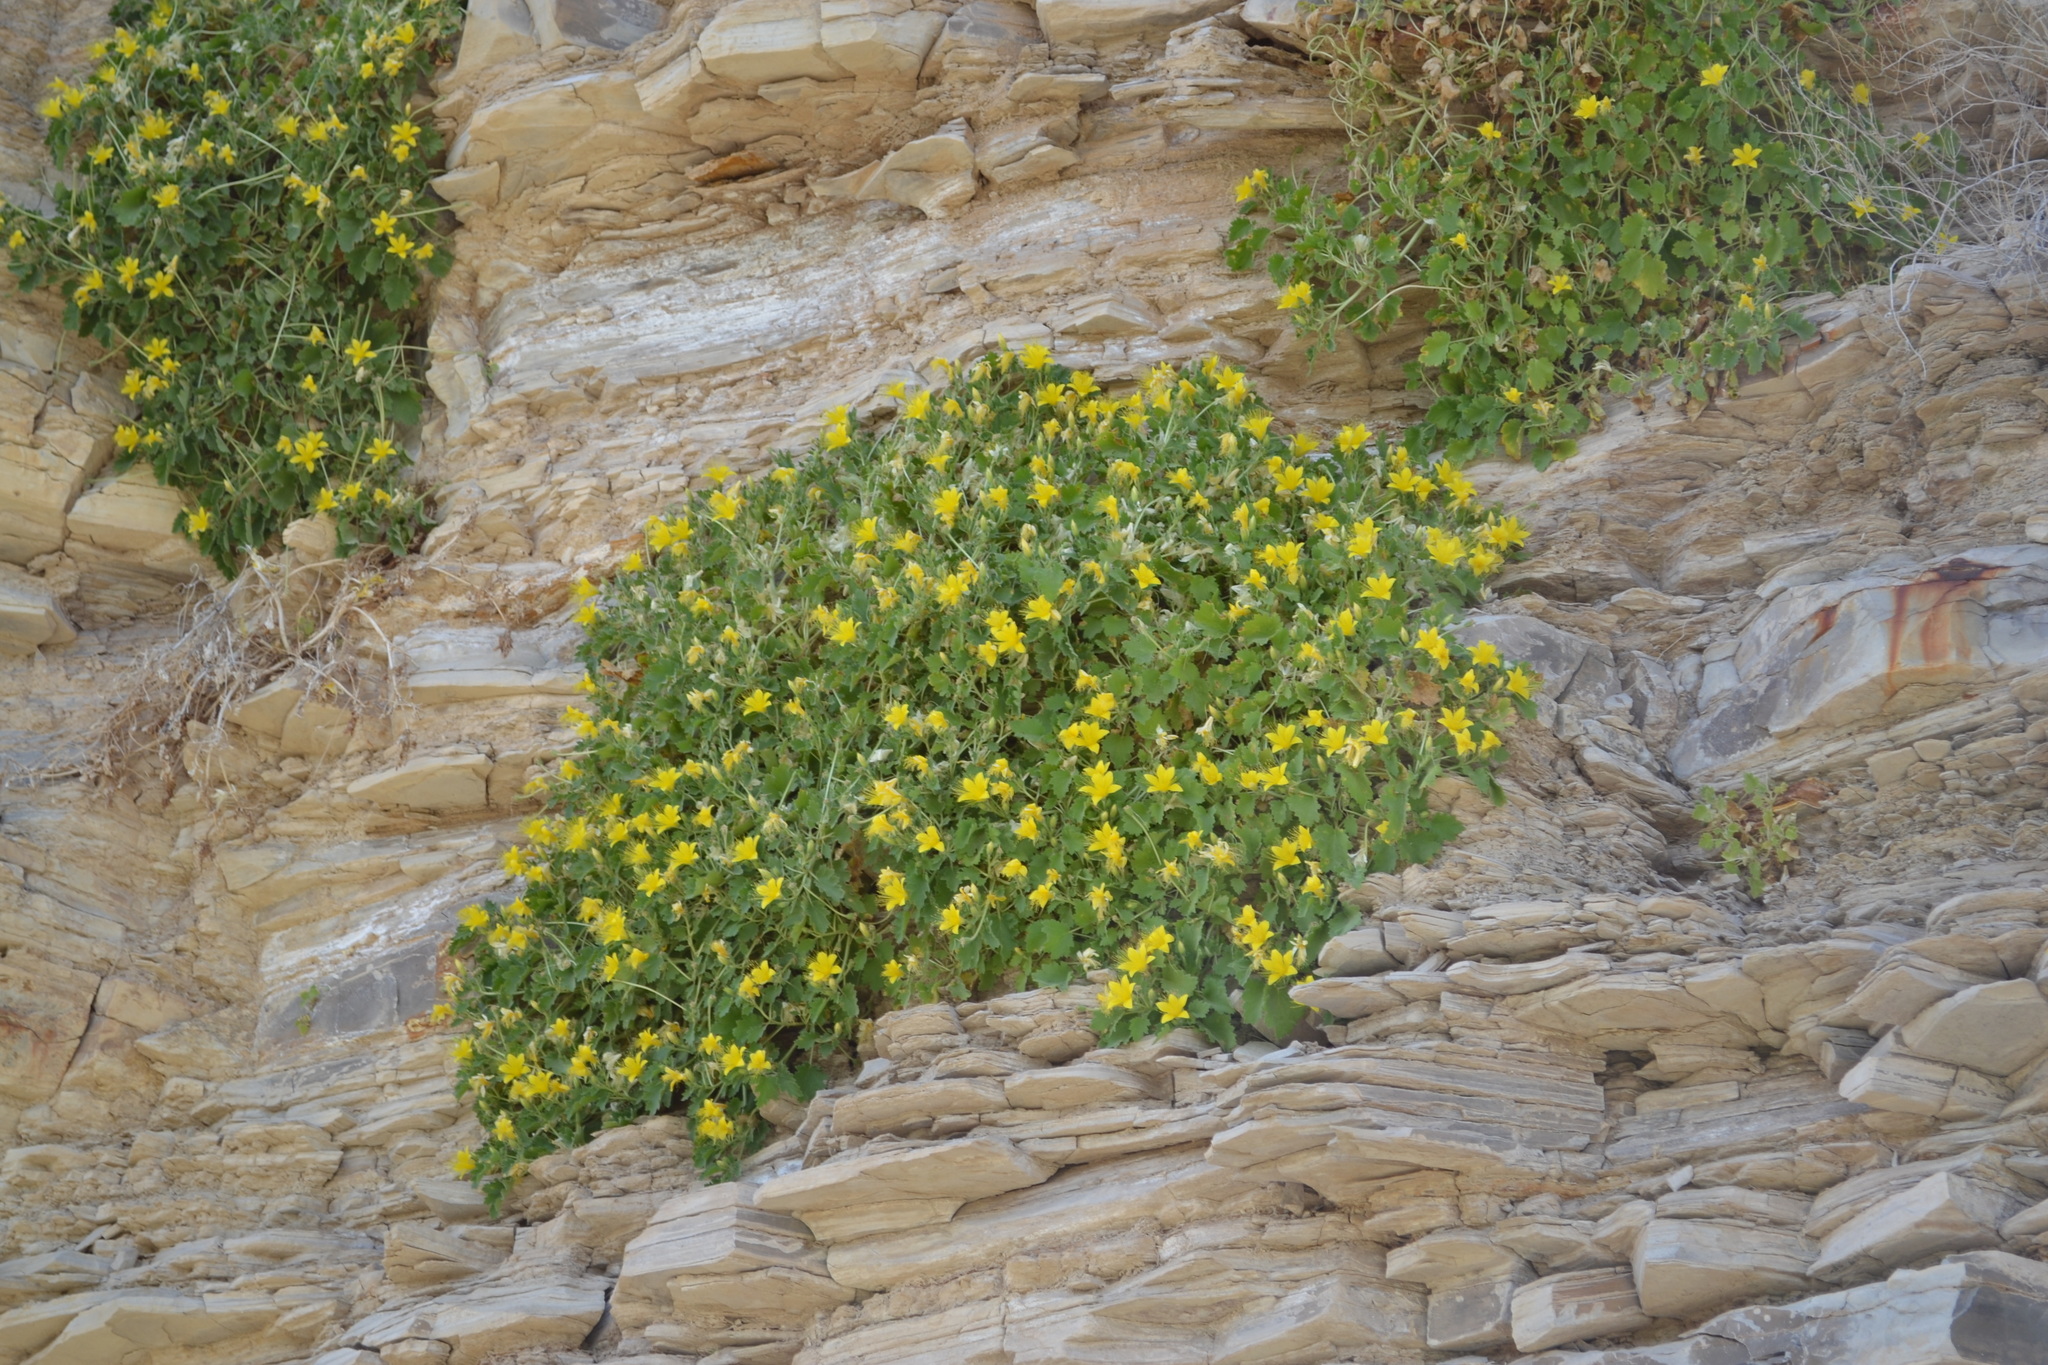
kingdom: Plantae
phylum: Tracheophyta
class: Magnoliopsida
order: Cornales
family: Loasaceae
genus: Eucnide
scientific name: Eucnide bartonioides
